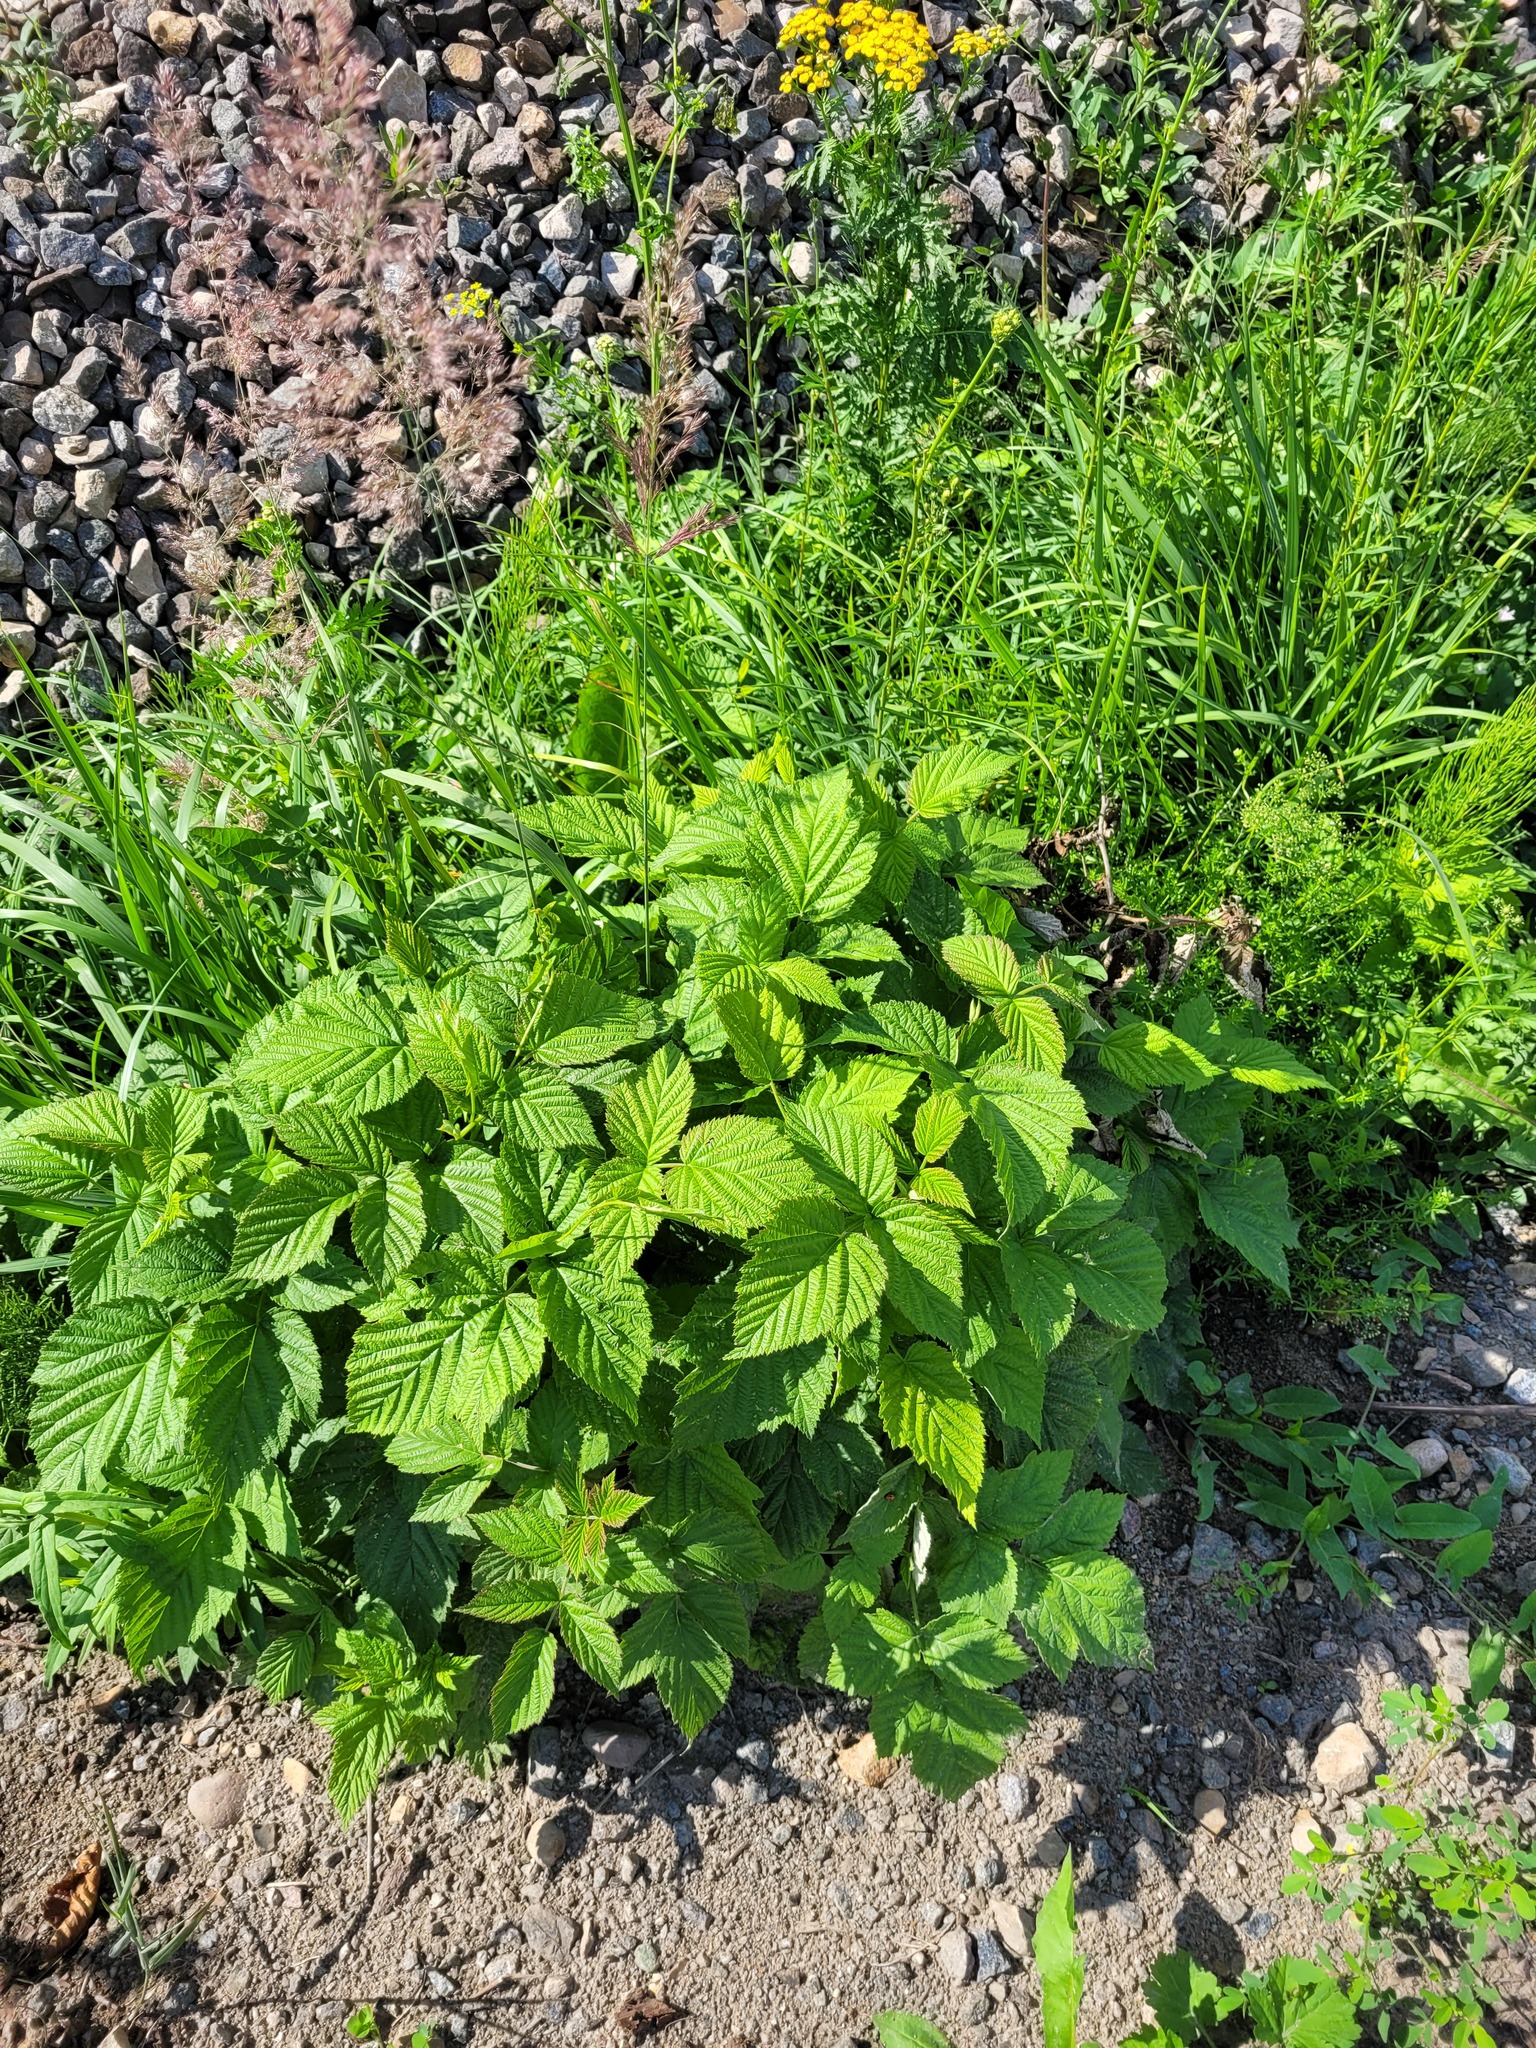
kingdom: Plantae
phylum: Tracheophyta
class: Magnoliopsida
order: Rosales
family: Rosaceae
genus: Rubus
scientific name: Rubus idaeus
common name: Raspberry
